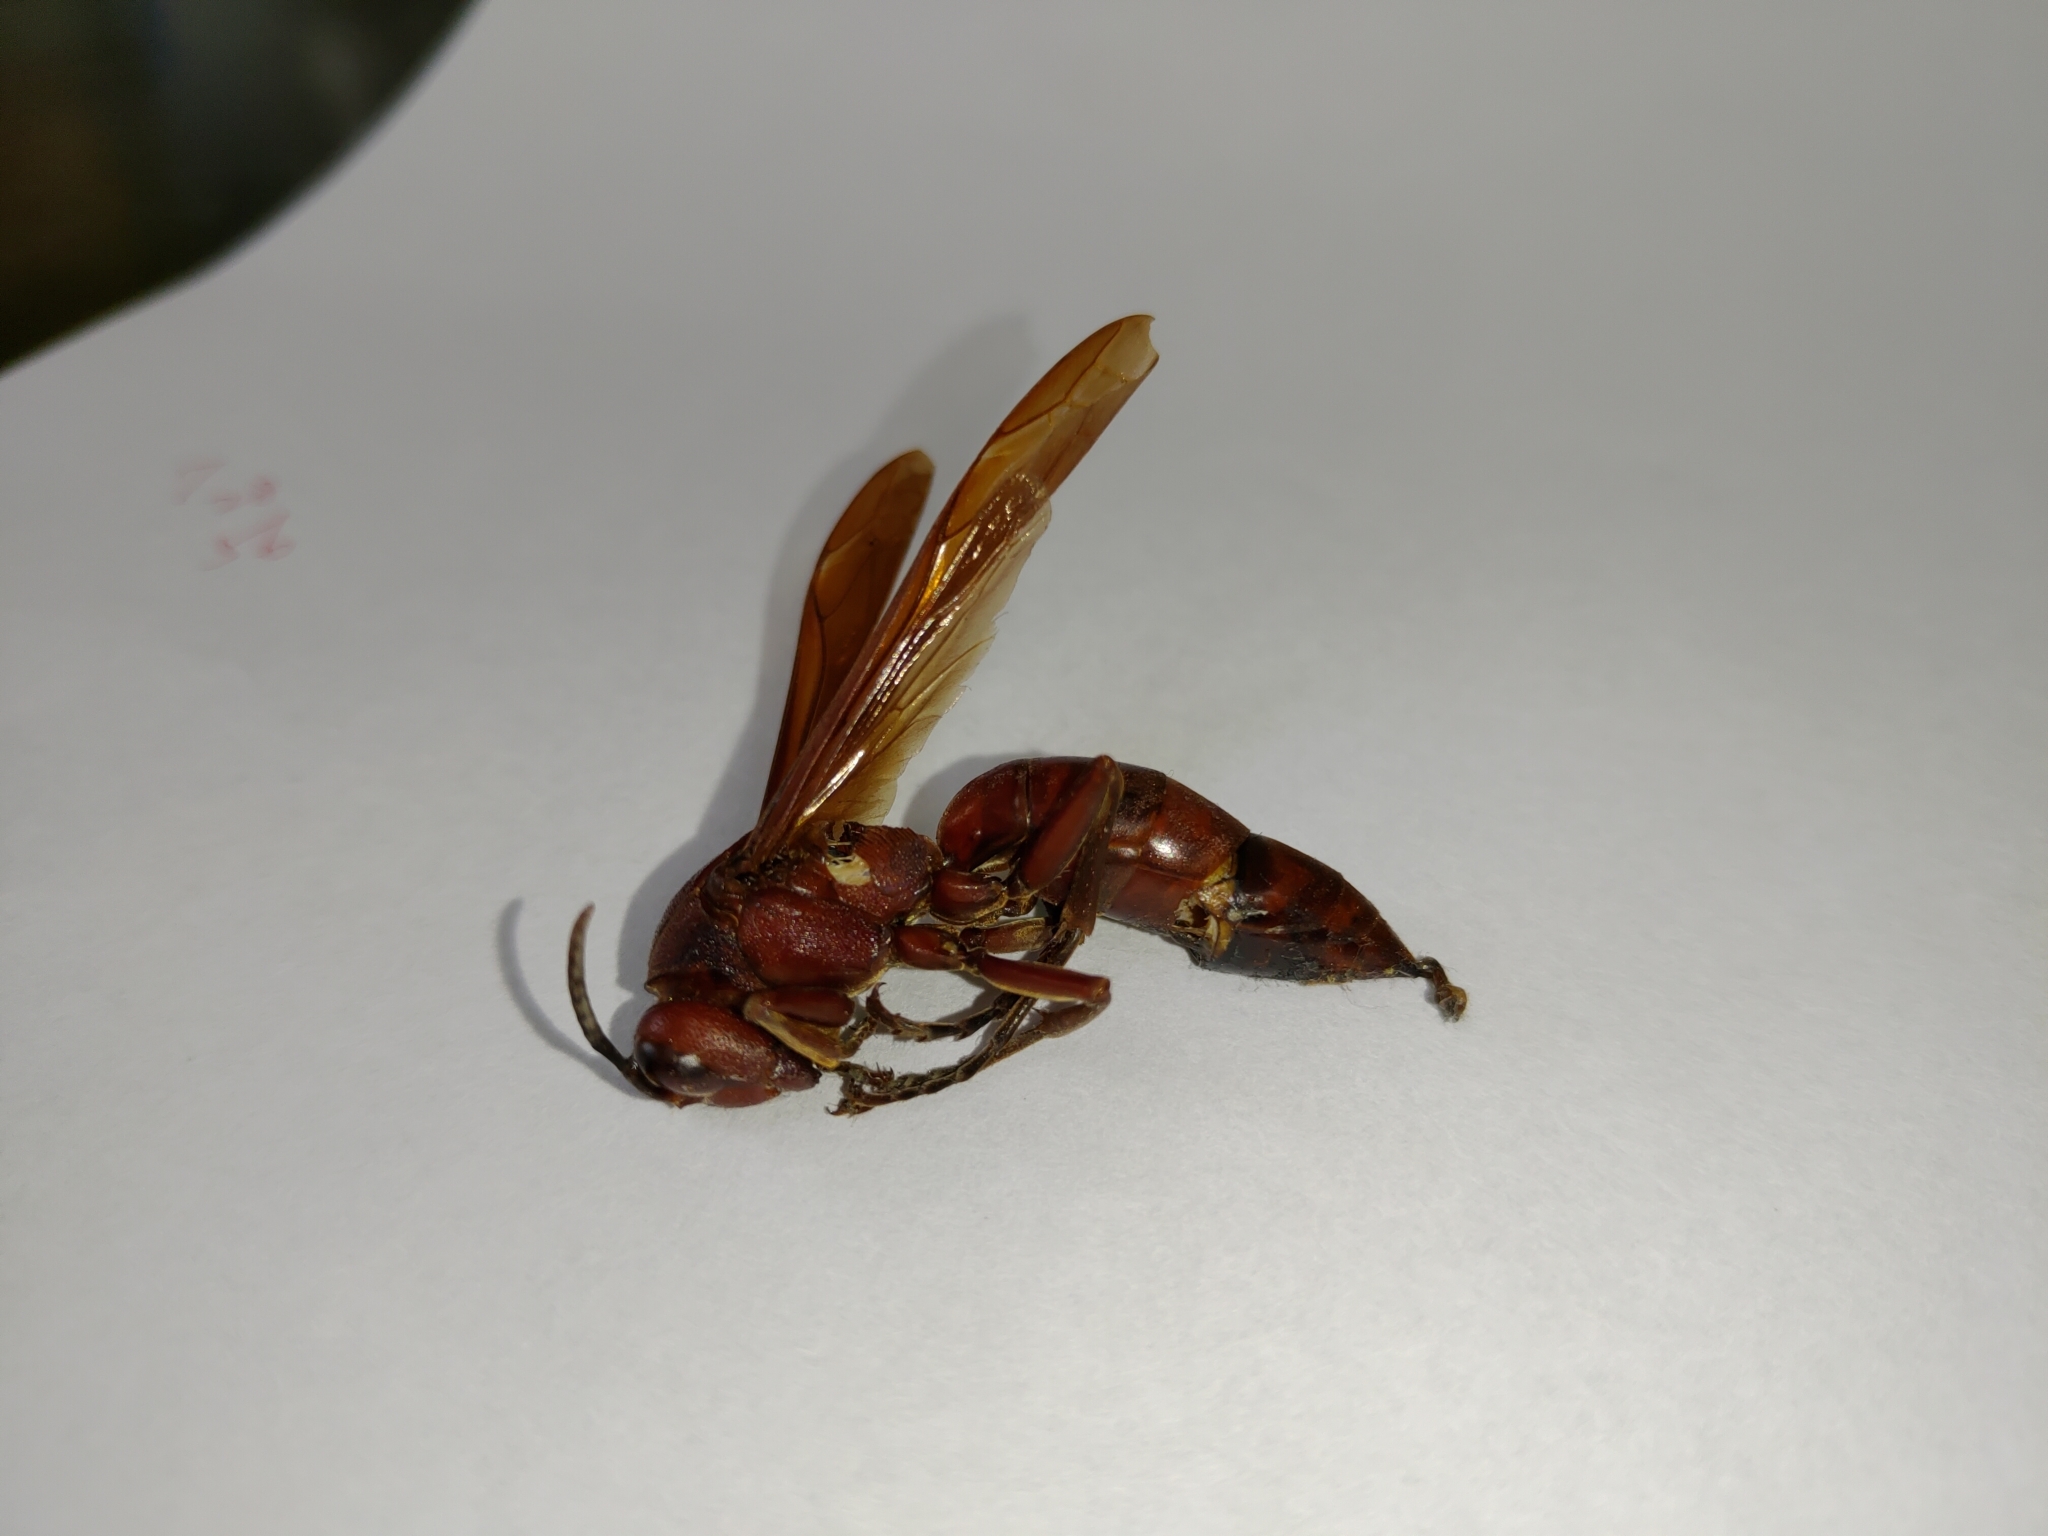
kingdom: Animalia
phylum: Arthropoda
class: Insecta
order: Hymenoptera
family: Eumenidae
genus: Polistes
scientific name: Polistes gigas
